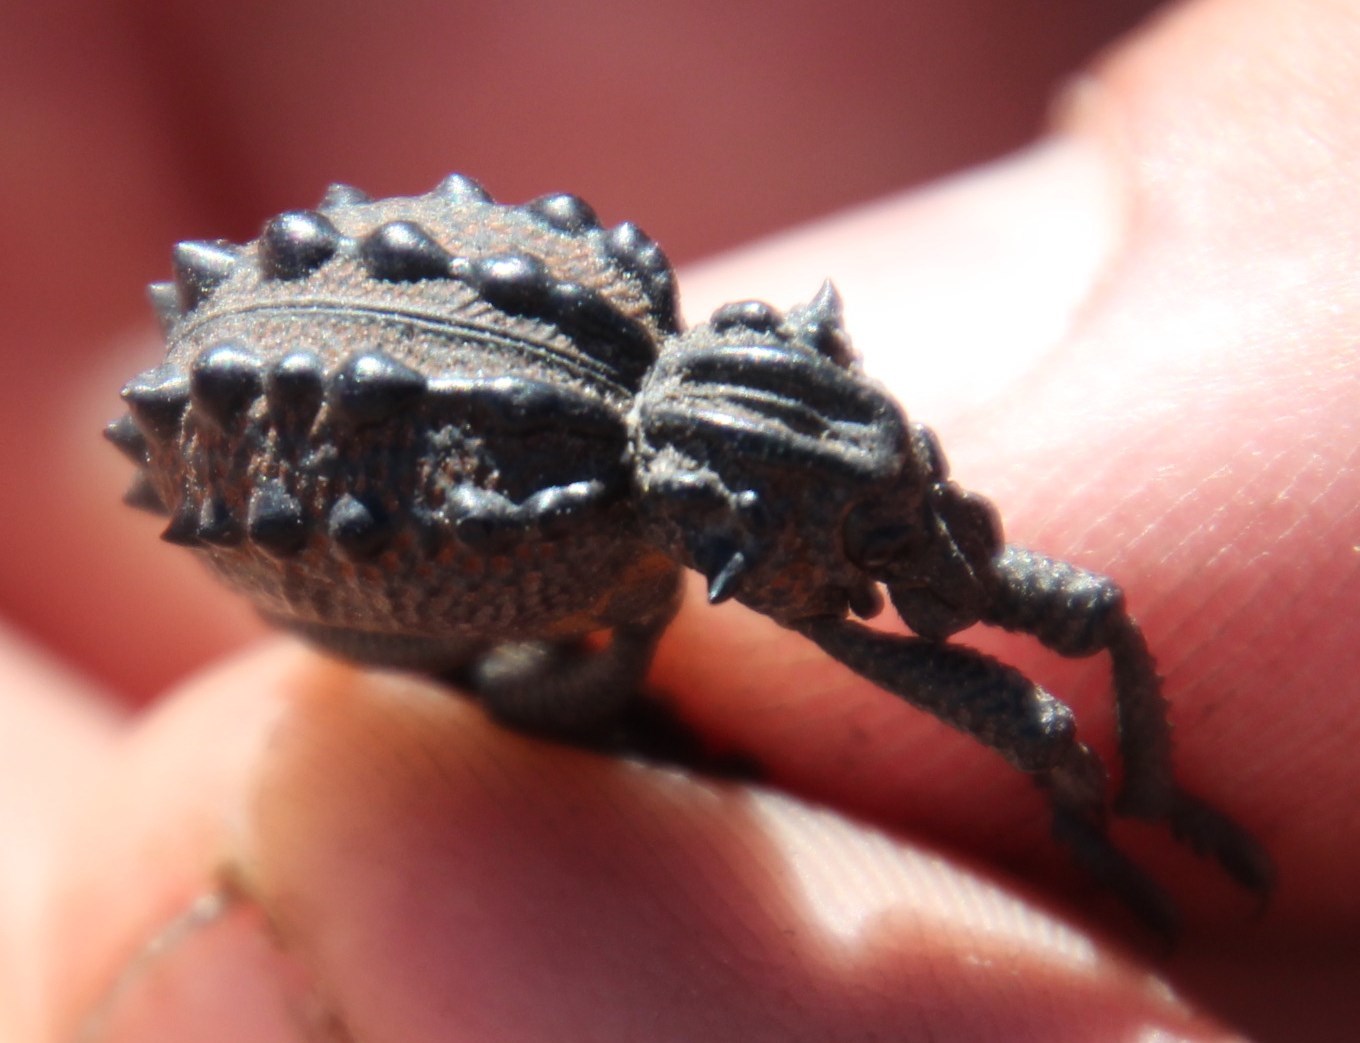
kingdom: Animalia
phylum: Arthropoda
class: Insecta
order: Coleoptera
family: Brachyceridae
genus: Brachycerus
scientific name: Brachycerus turriferus
